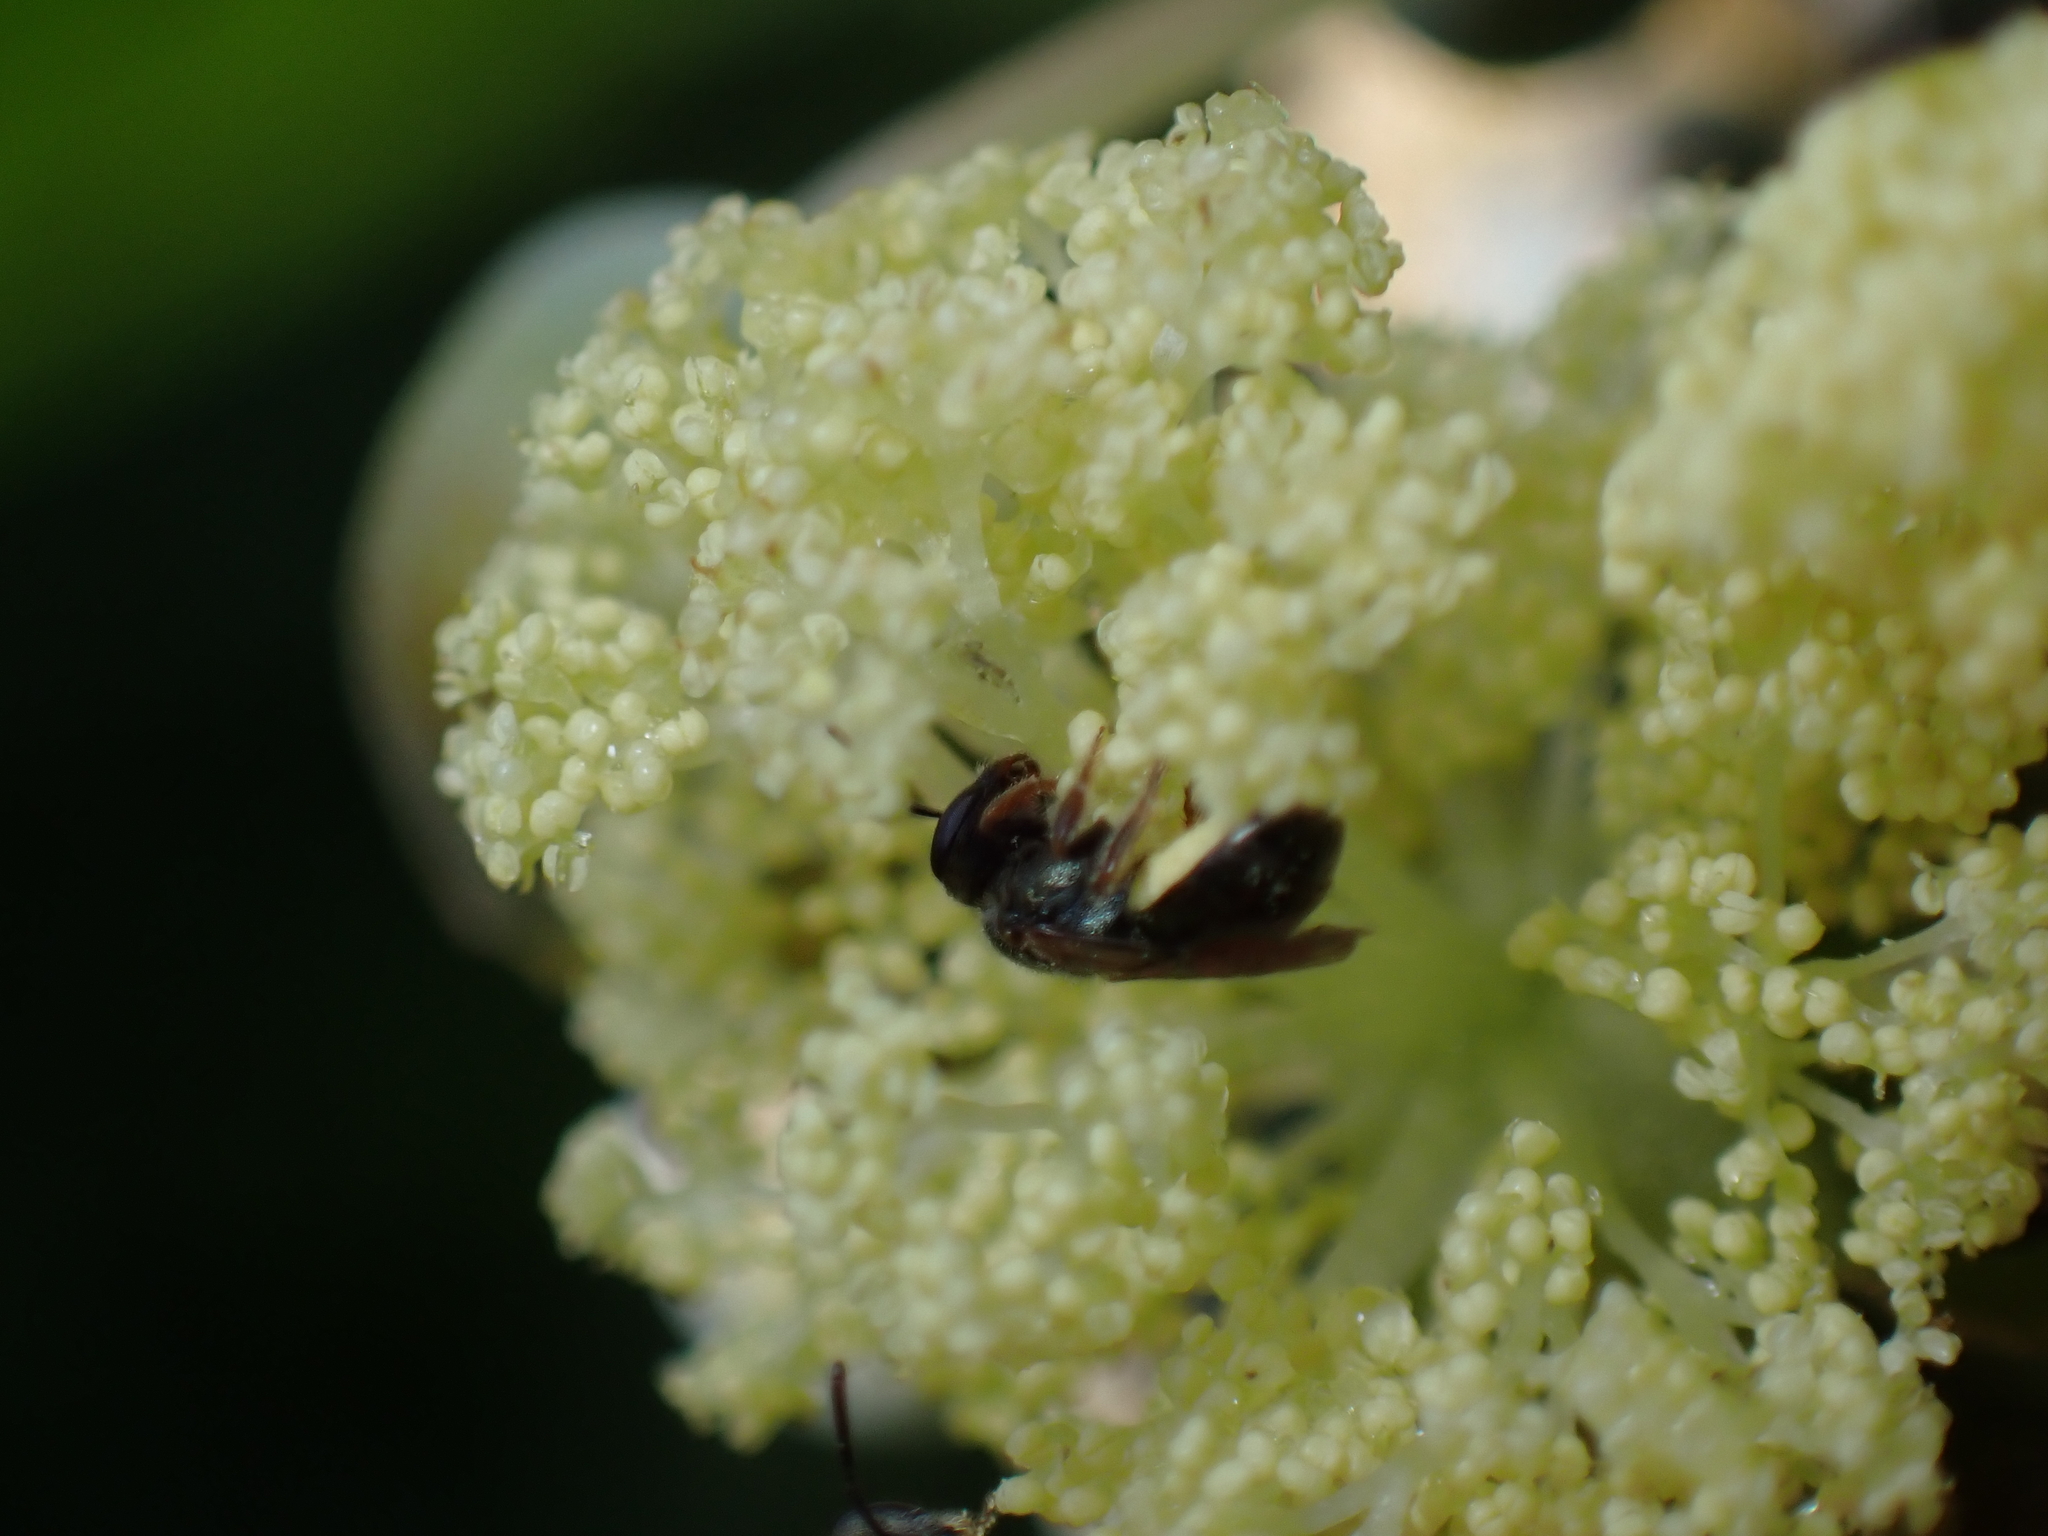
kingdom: Animalia
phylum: Arthropoda
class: Insecta
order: Hymenoptera
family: Halictidae
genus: Lasioglossum
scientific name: Lasioglossum
